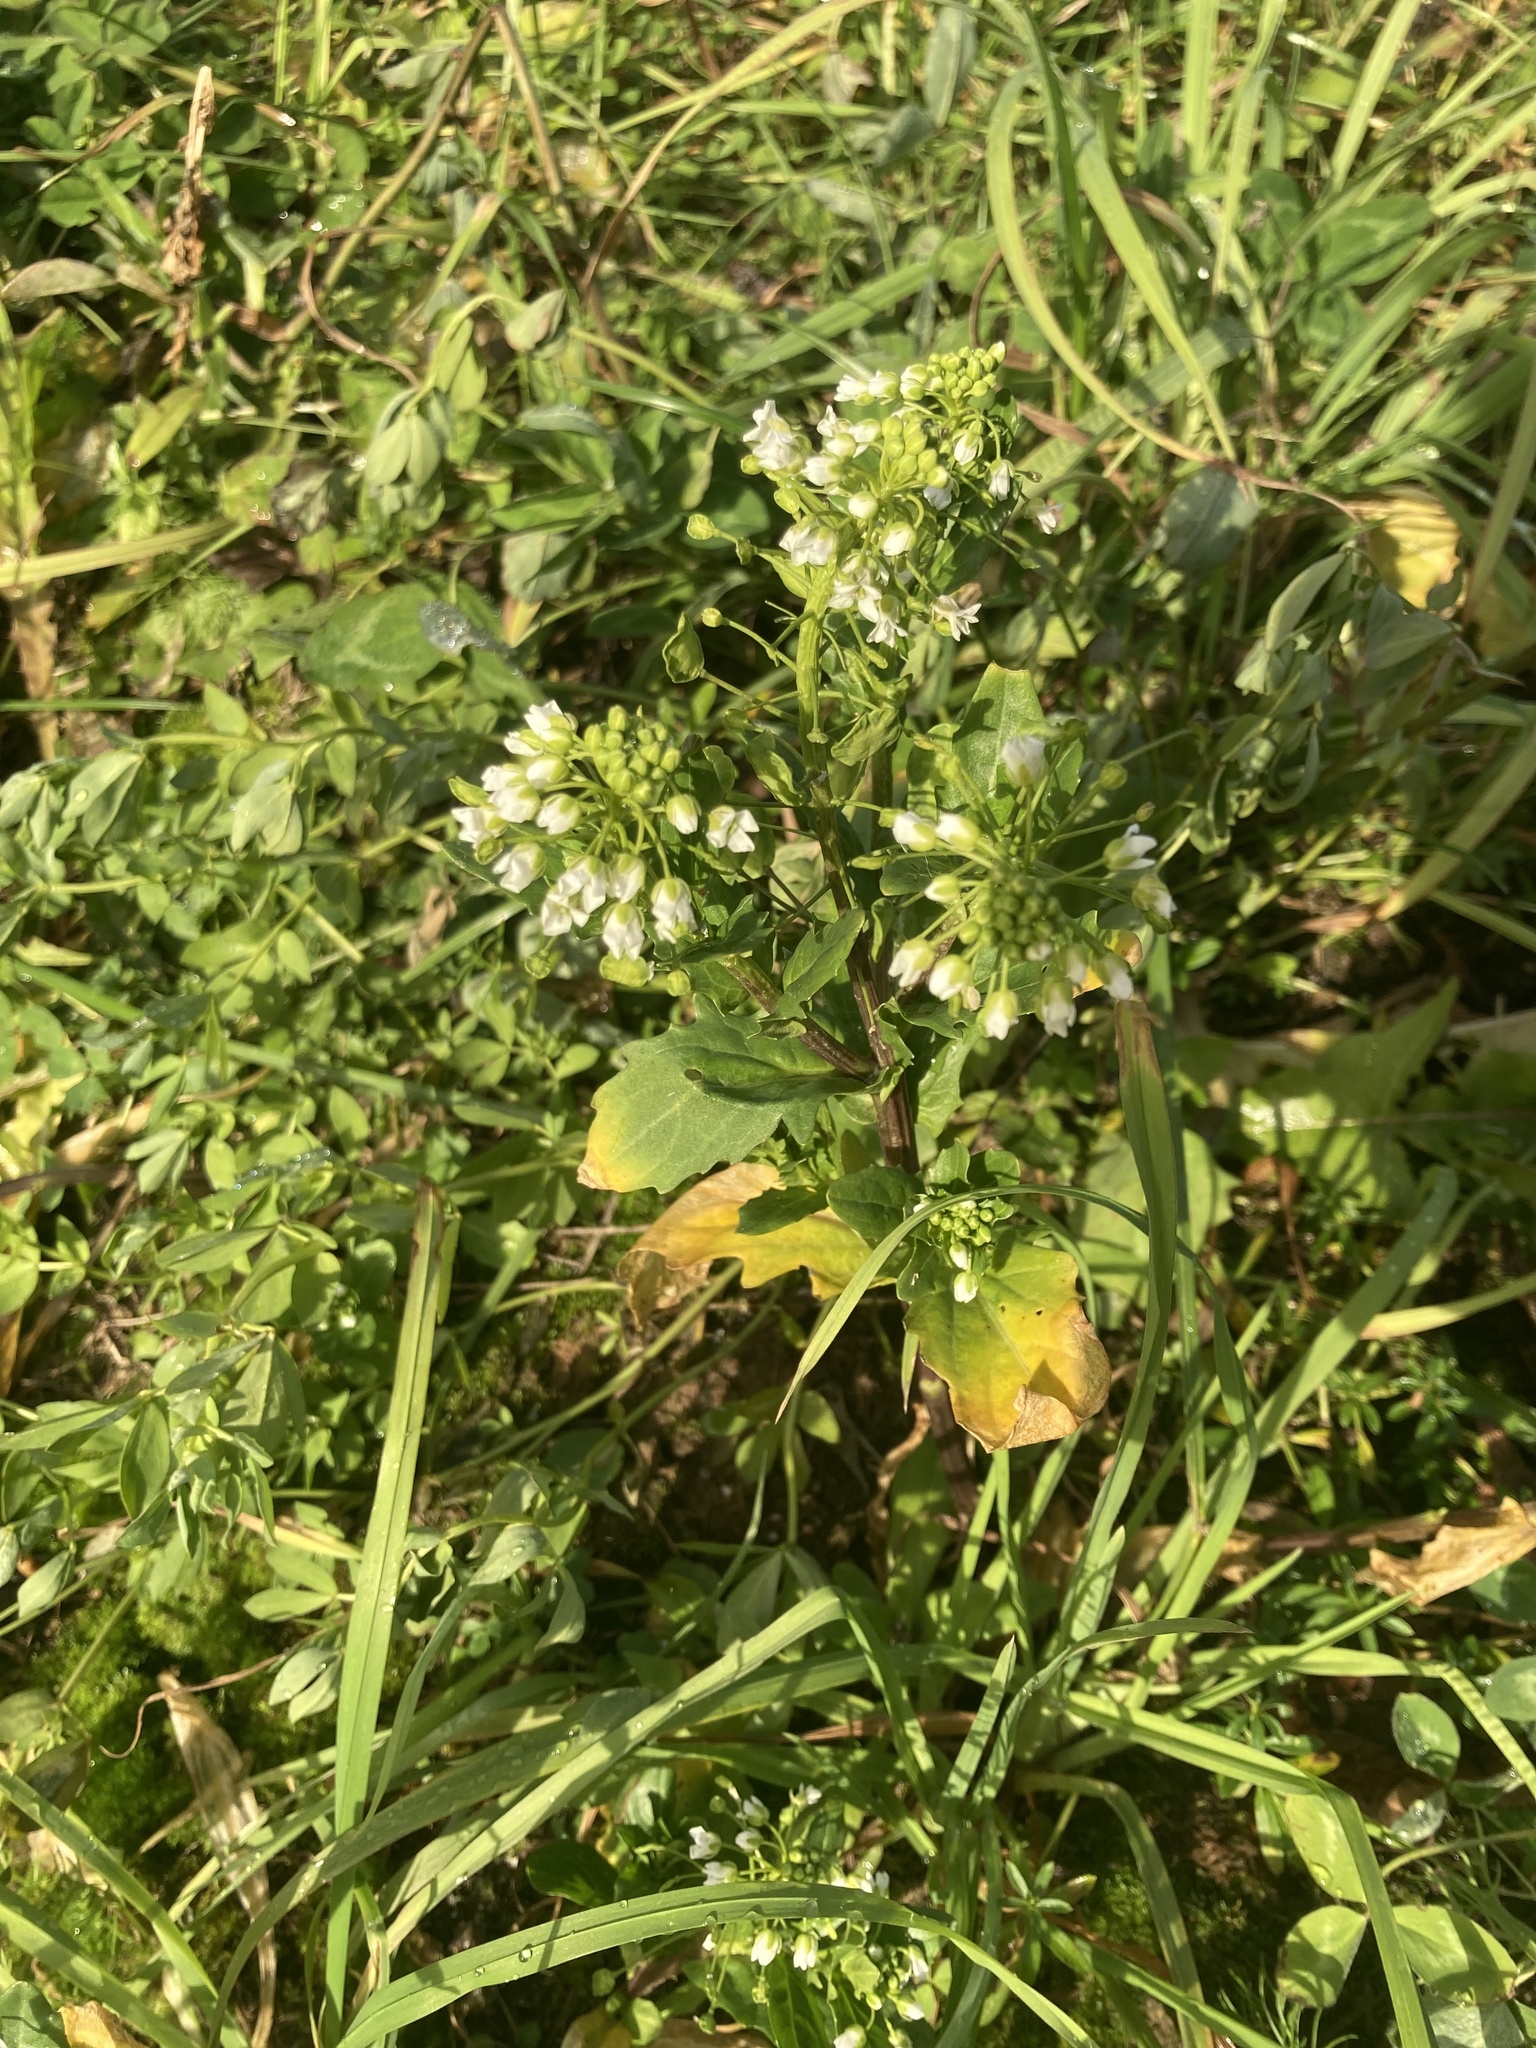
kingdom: Plantae
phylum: Tracheophyta
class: Magnoliopsida
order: Brassicales
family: Brassicaceae
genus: Thlaspi
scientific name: Thlaspi arvense
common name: Field pennycress
